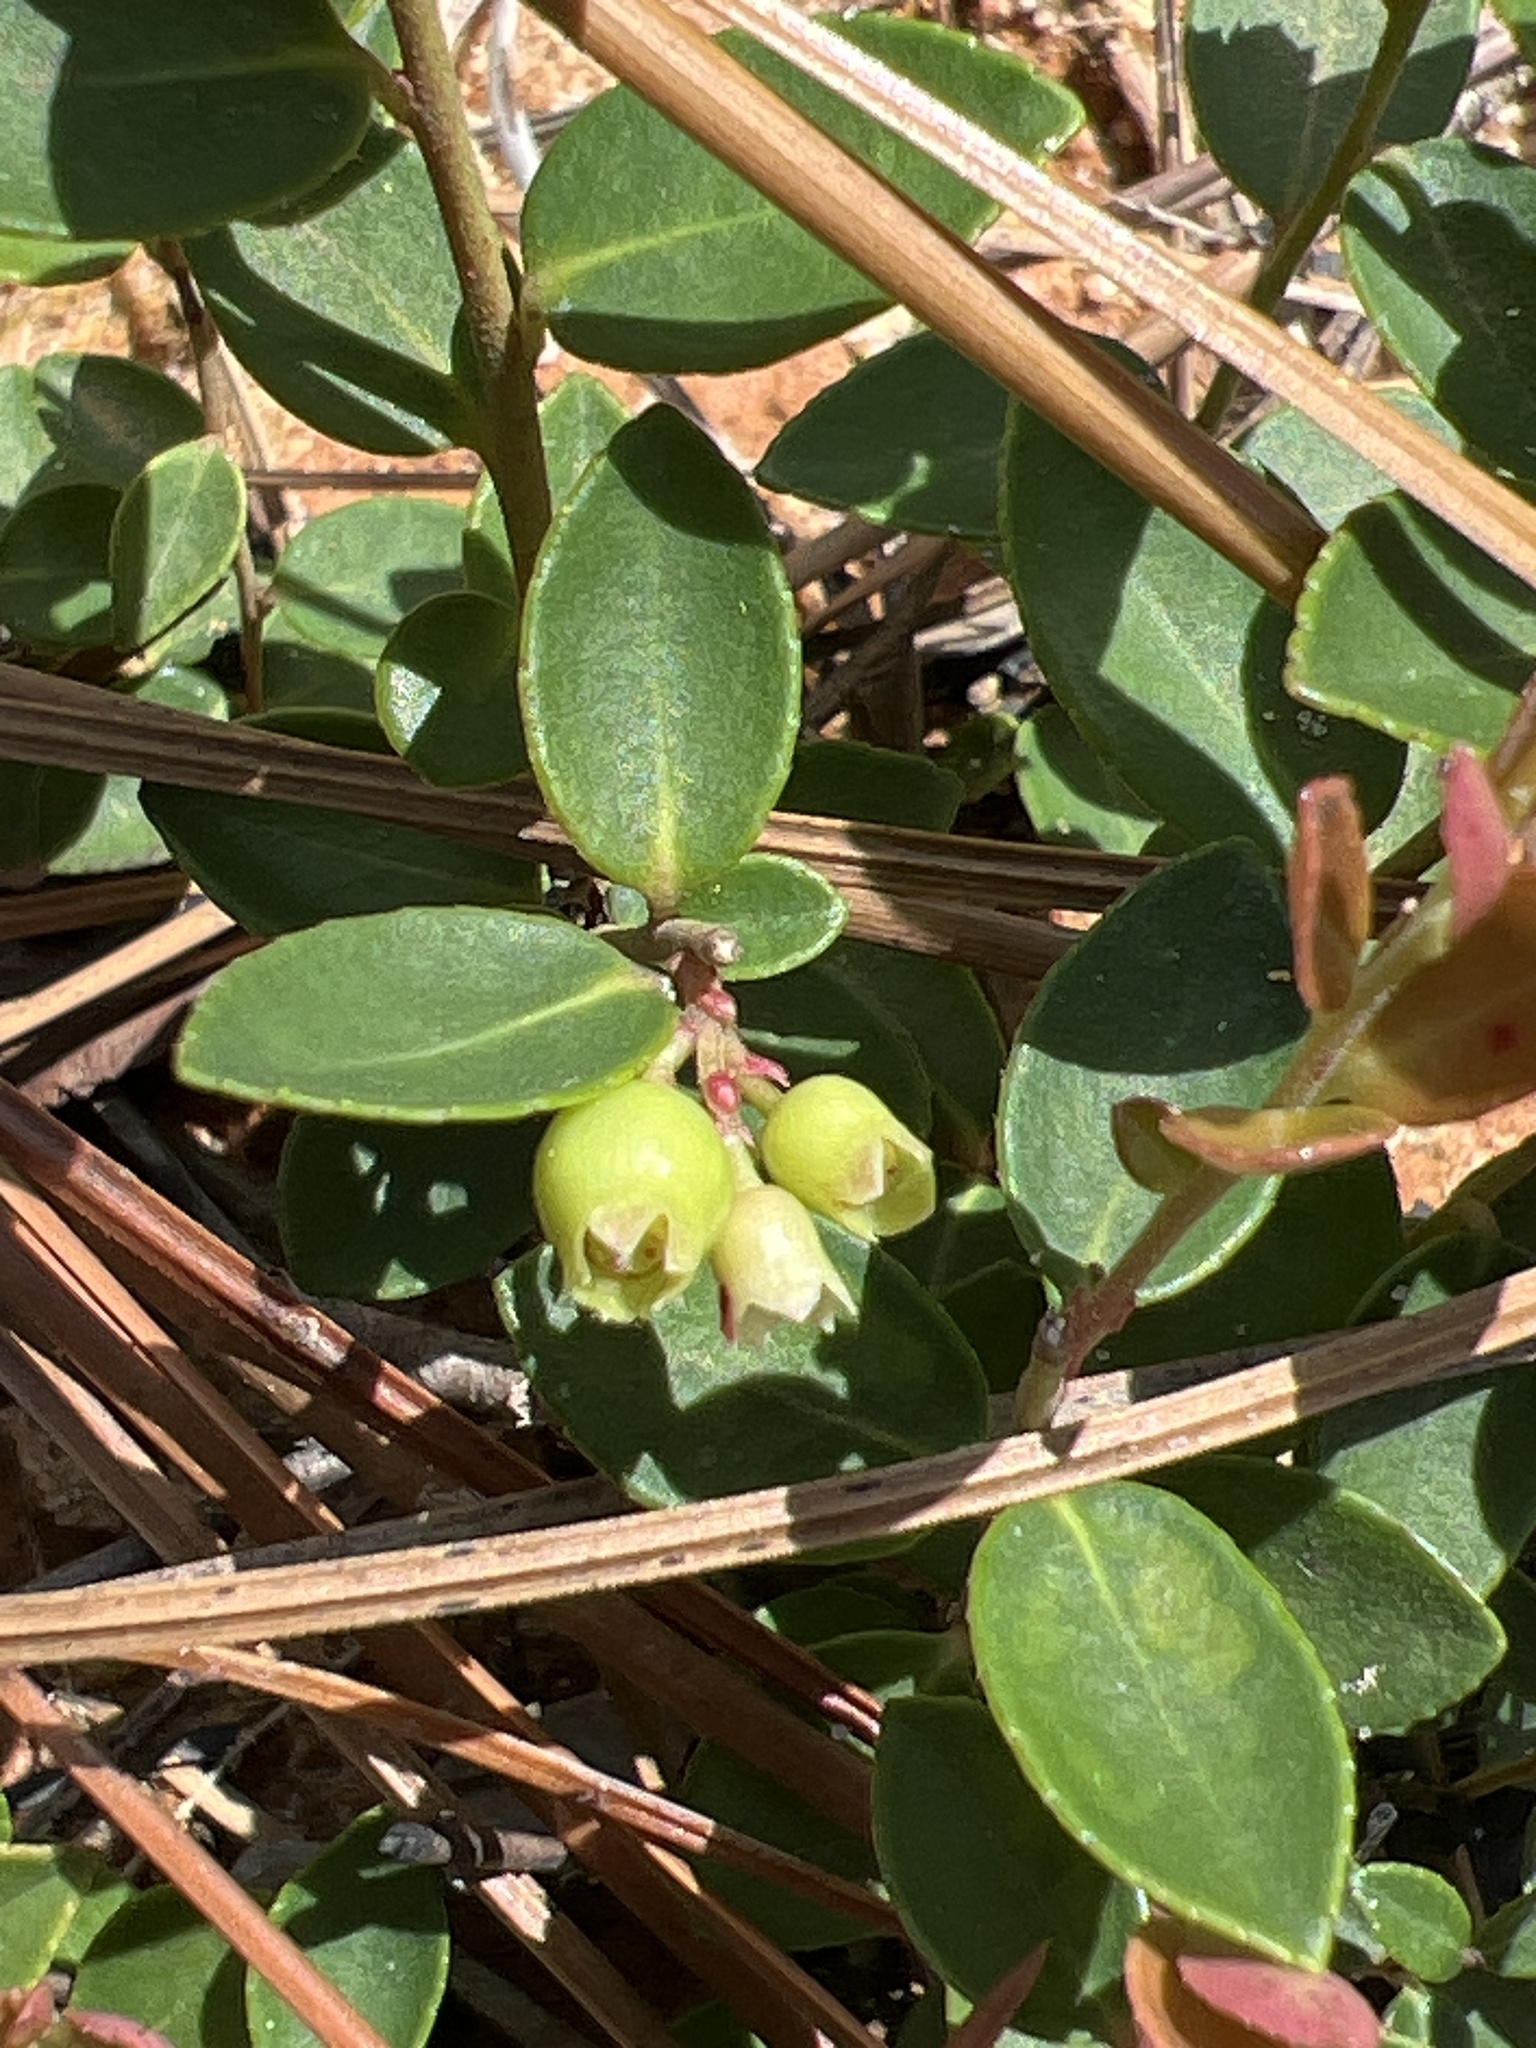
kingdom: Plantae
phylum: Tracheophyta
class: Magnoliopsida
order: Ericales
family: Ericaceae
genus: Vaccinium
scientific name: Vaccinium crassifolium
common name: Creeping blueberry
